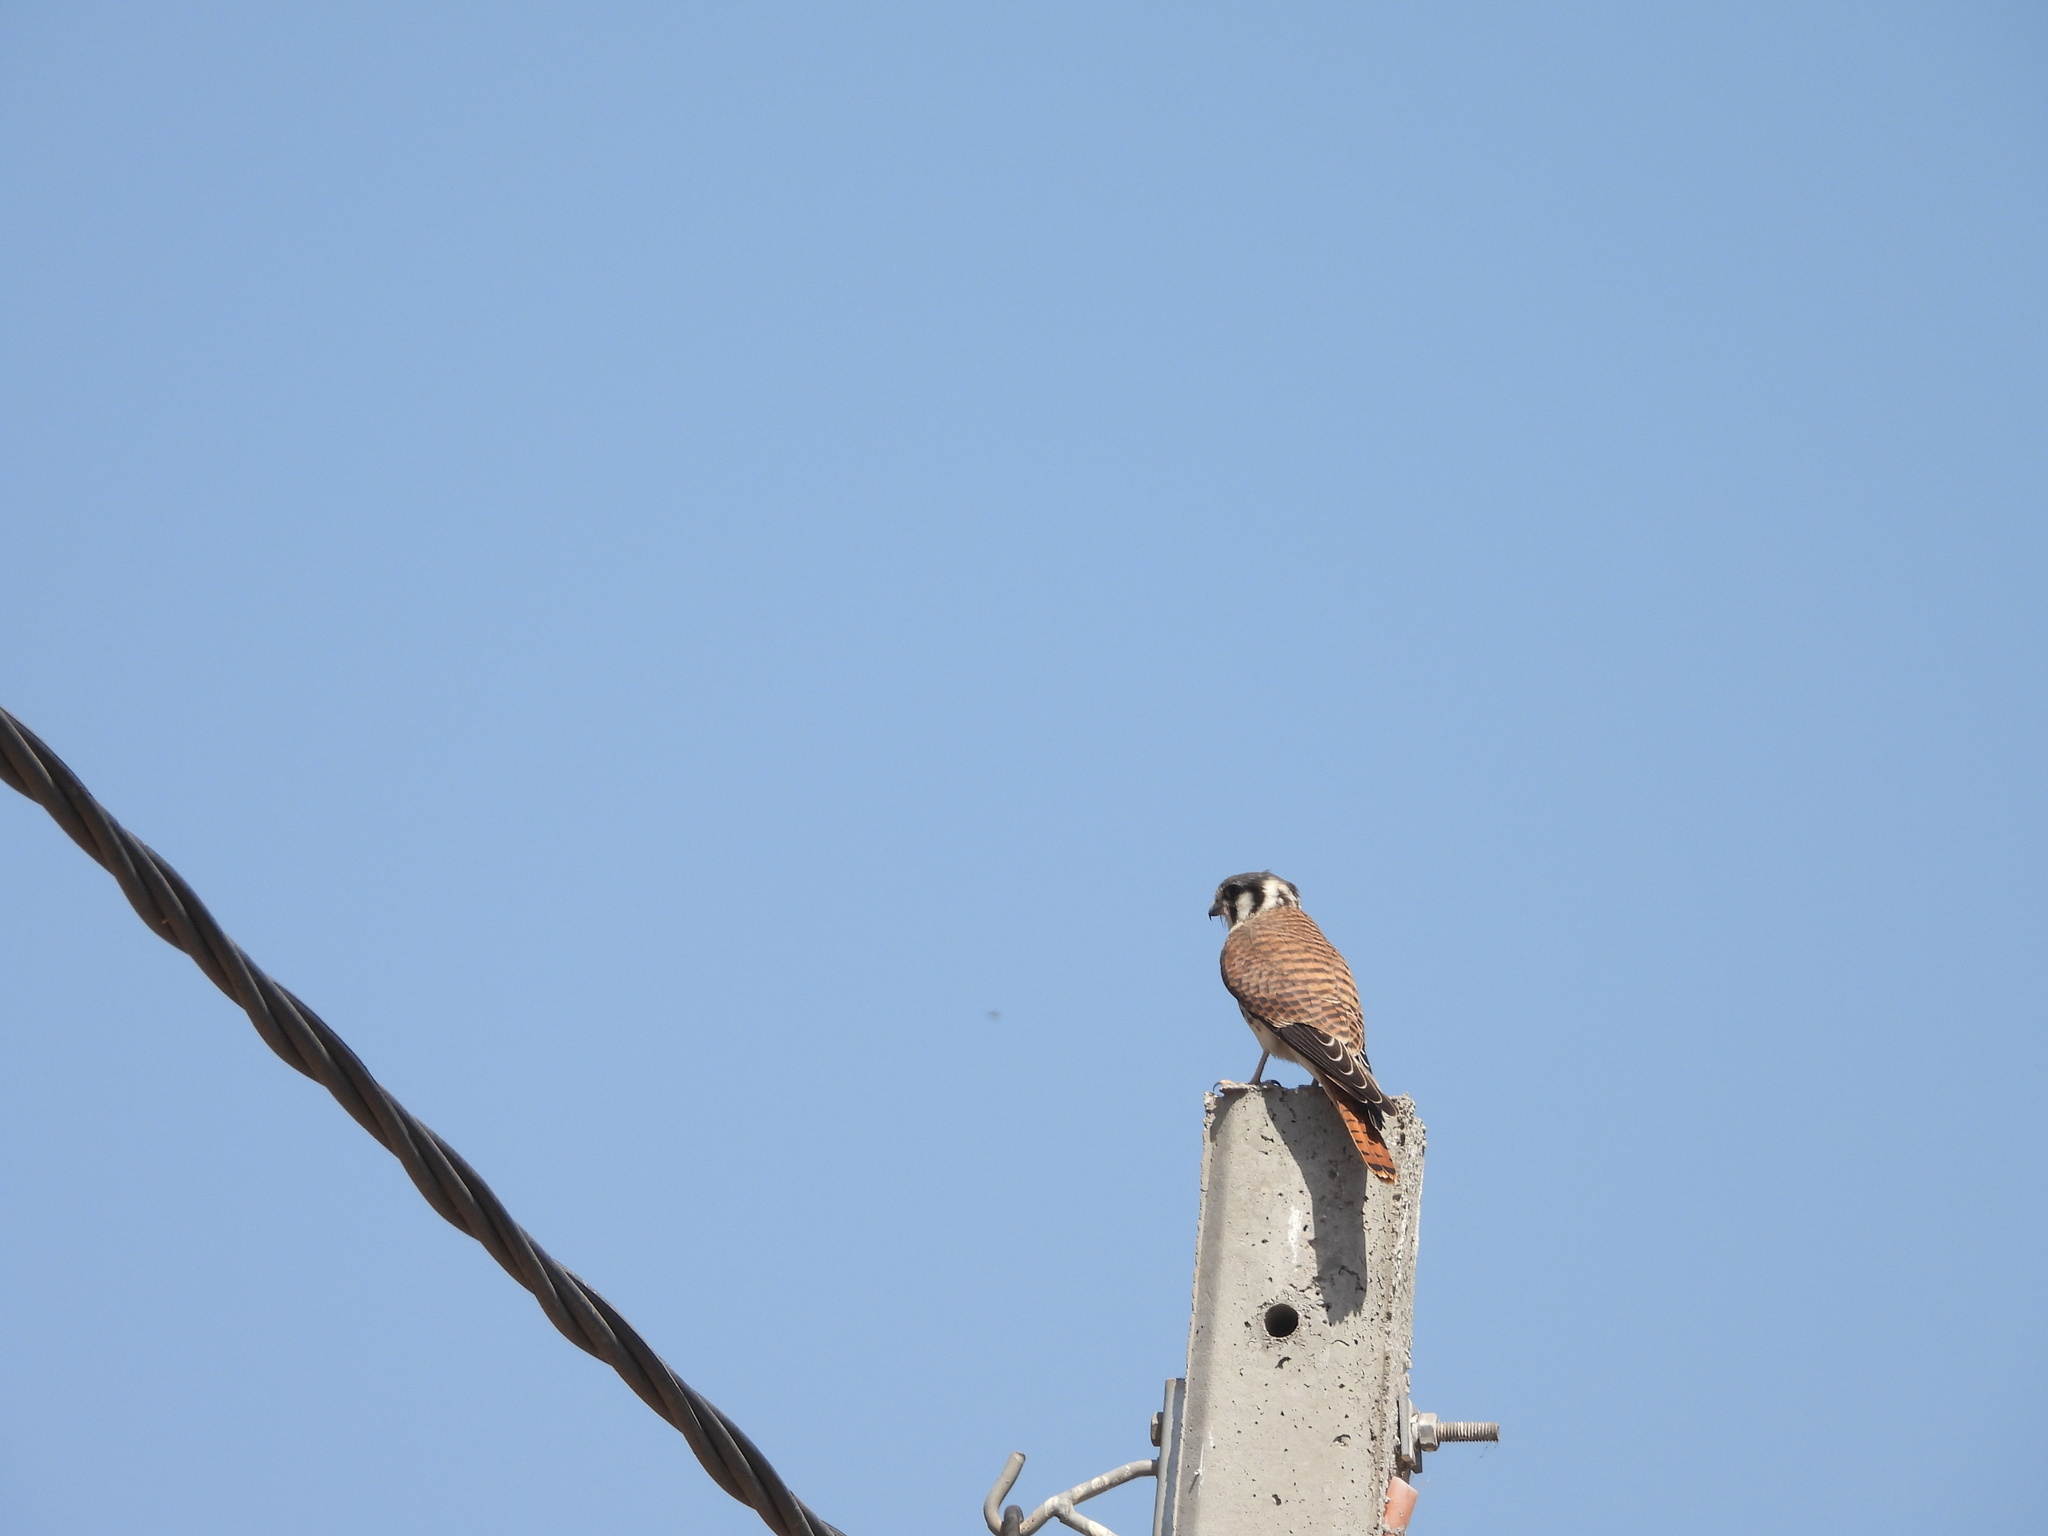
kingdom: Animalia
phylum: Chordata
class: Aves
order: Falconiformes
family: Falconidae
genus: Falco
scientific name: Falco sparverius
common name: American kestrel
